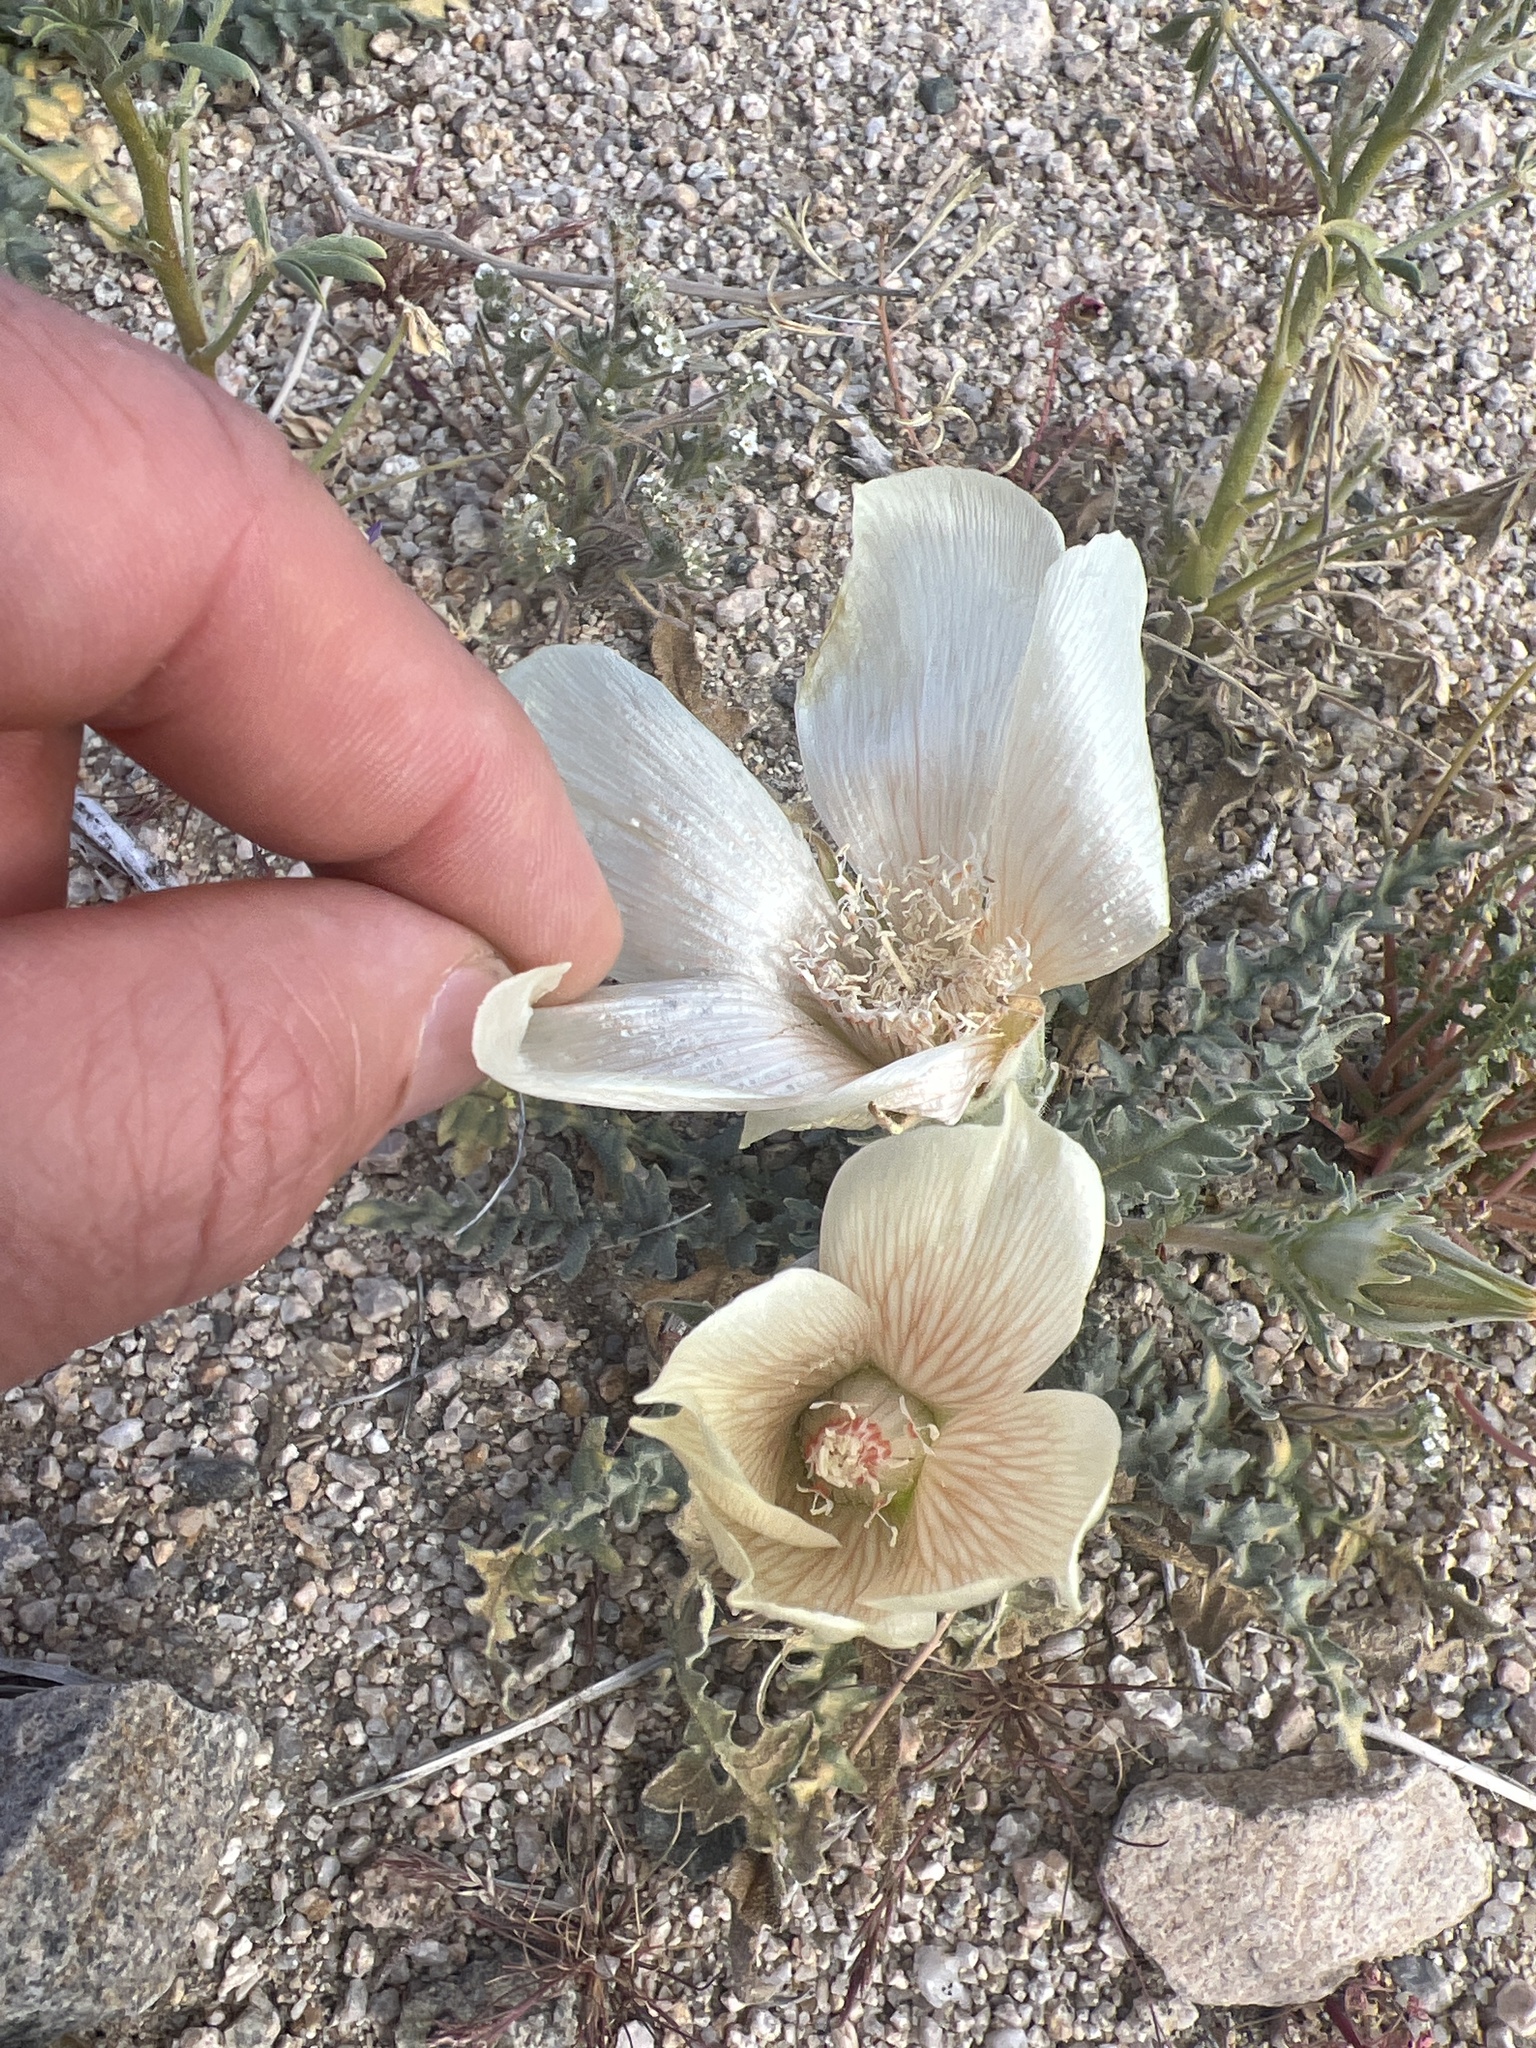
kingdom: Plantae
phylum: Tracheophyta
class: Magnoliopsida
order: Cornales
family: Loasaceae
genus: Mentzelia
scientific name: Mentzelia involucrata
